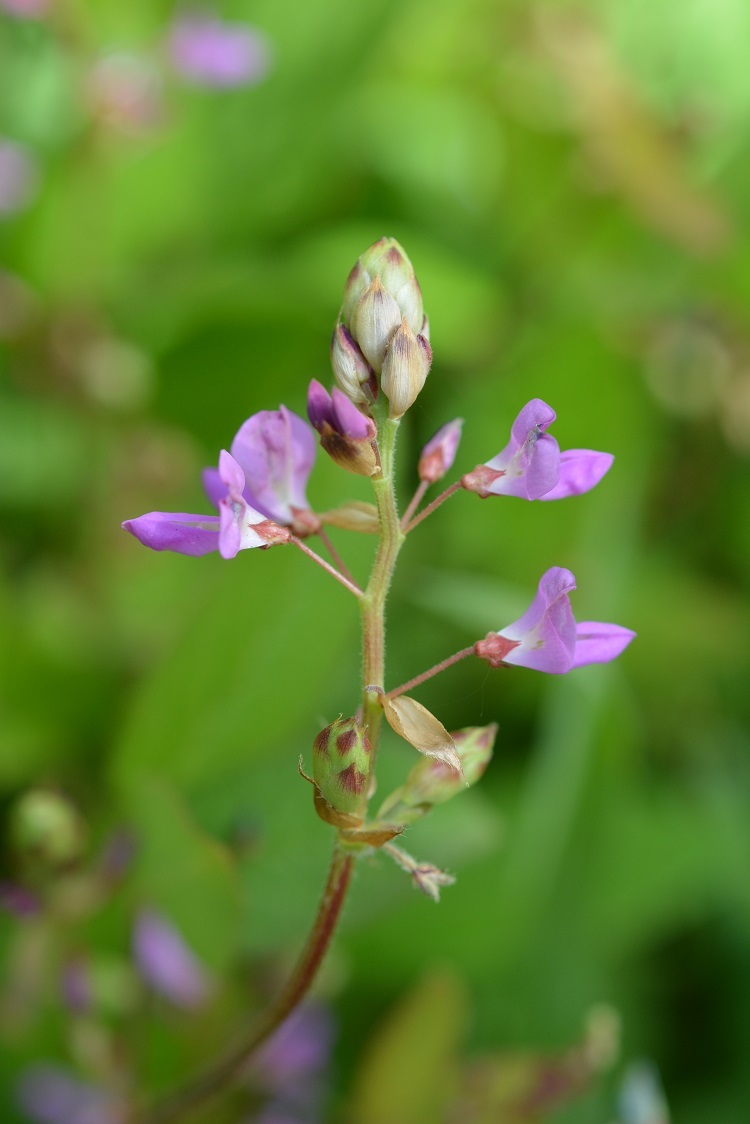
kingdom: Plantae
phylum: Tracheophyta
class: Magnoliopsida
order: Fabales
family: Fabaceae
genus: Desmodium
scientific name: Desmodium pringlei
